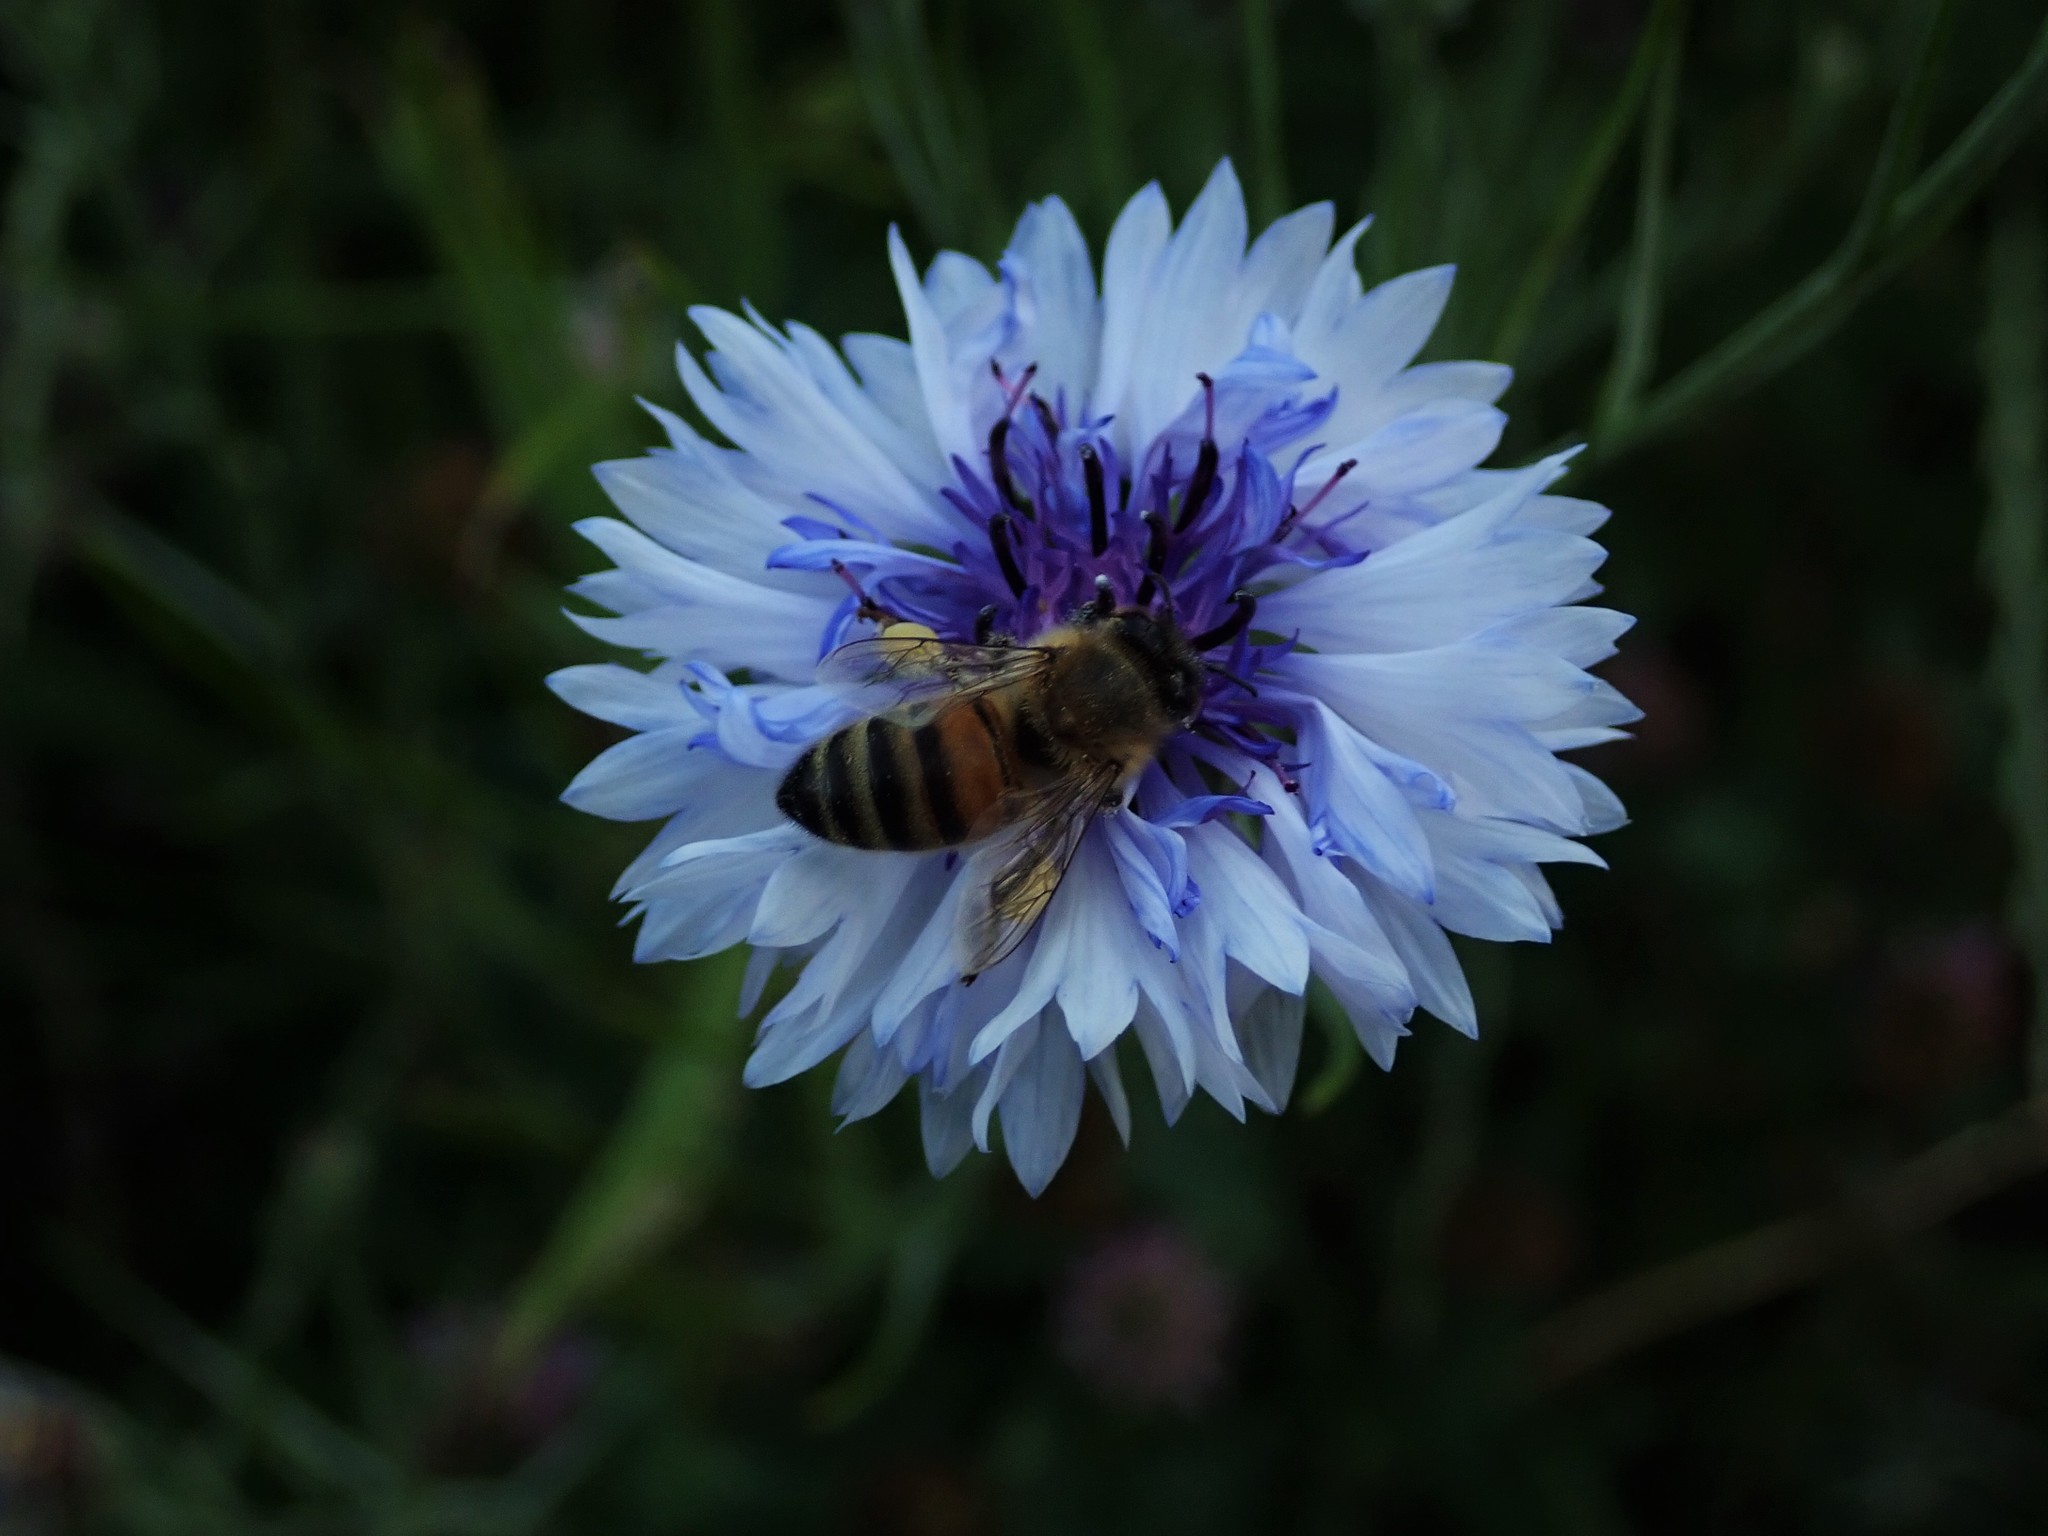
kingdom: Animalia
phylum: Arthropoda
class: Insecta
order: Hymenoptera
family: Apidae
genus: Apis
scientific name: Apis mellifera
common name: Honey bee
